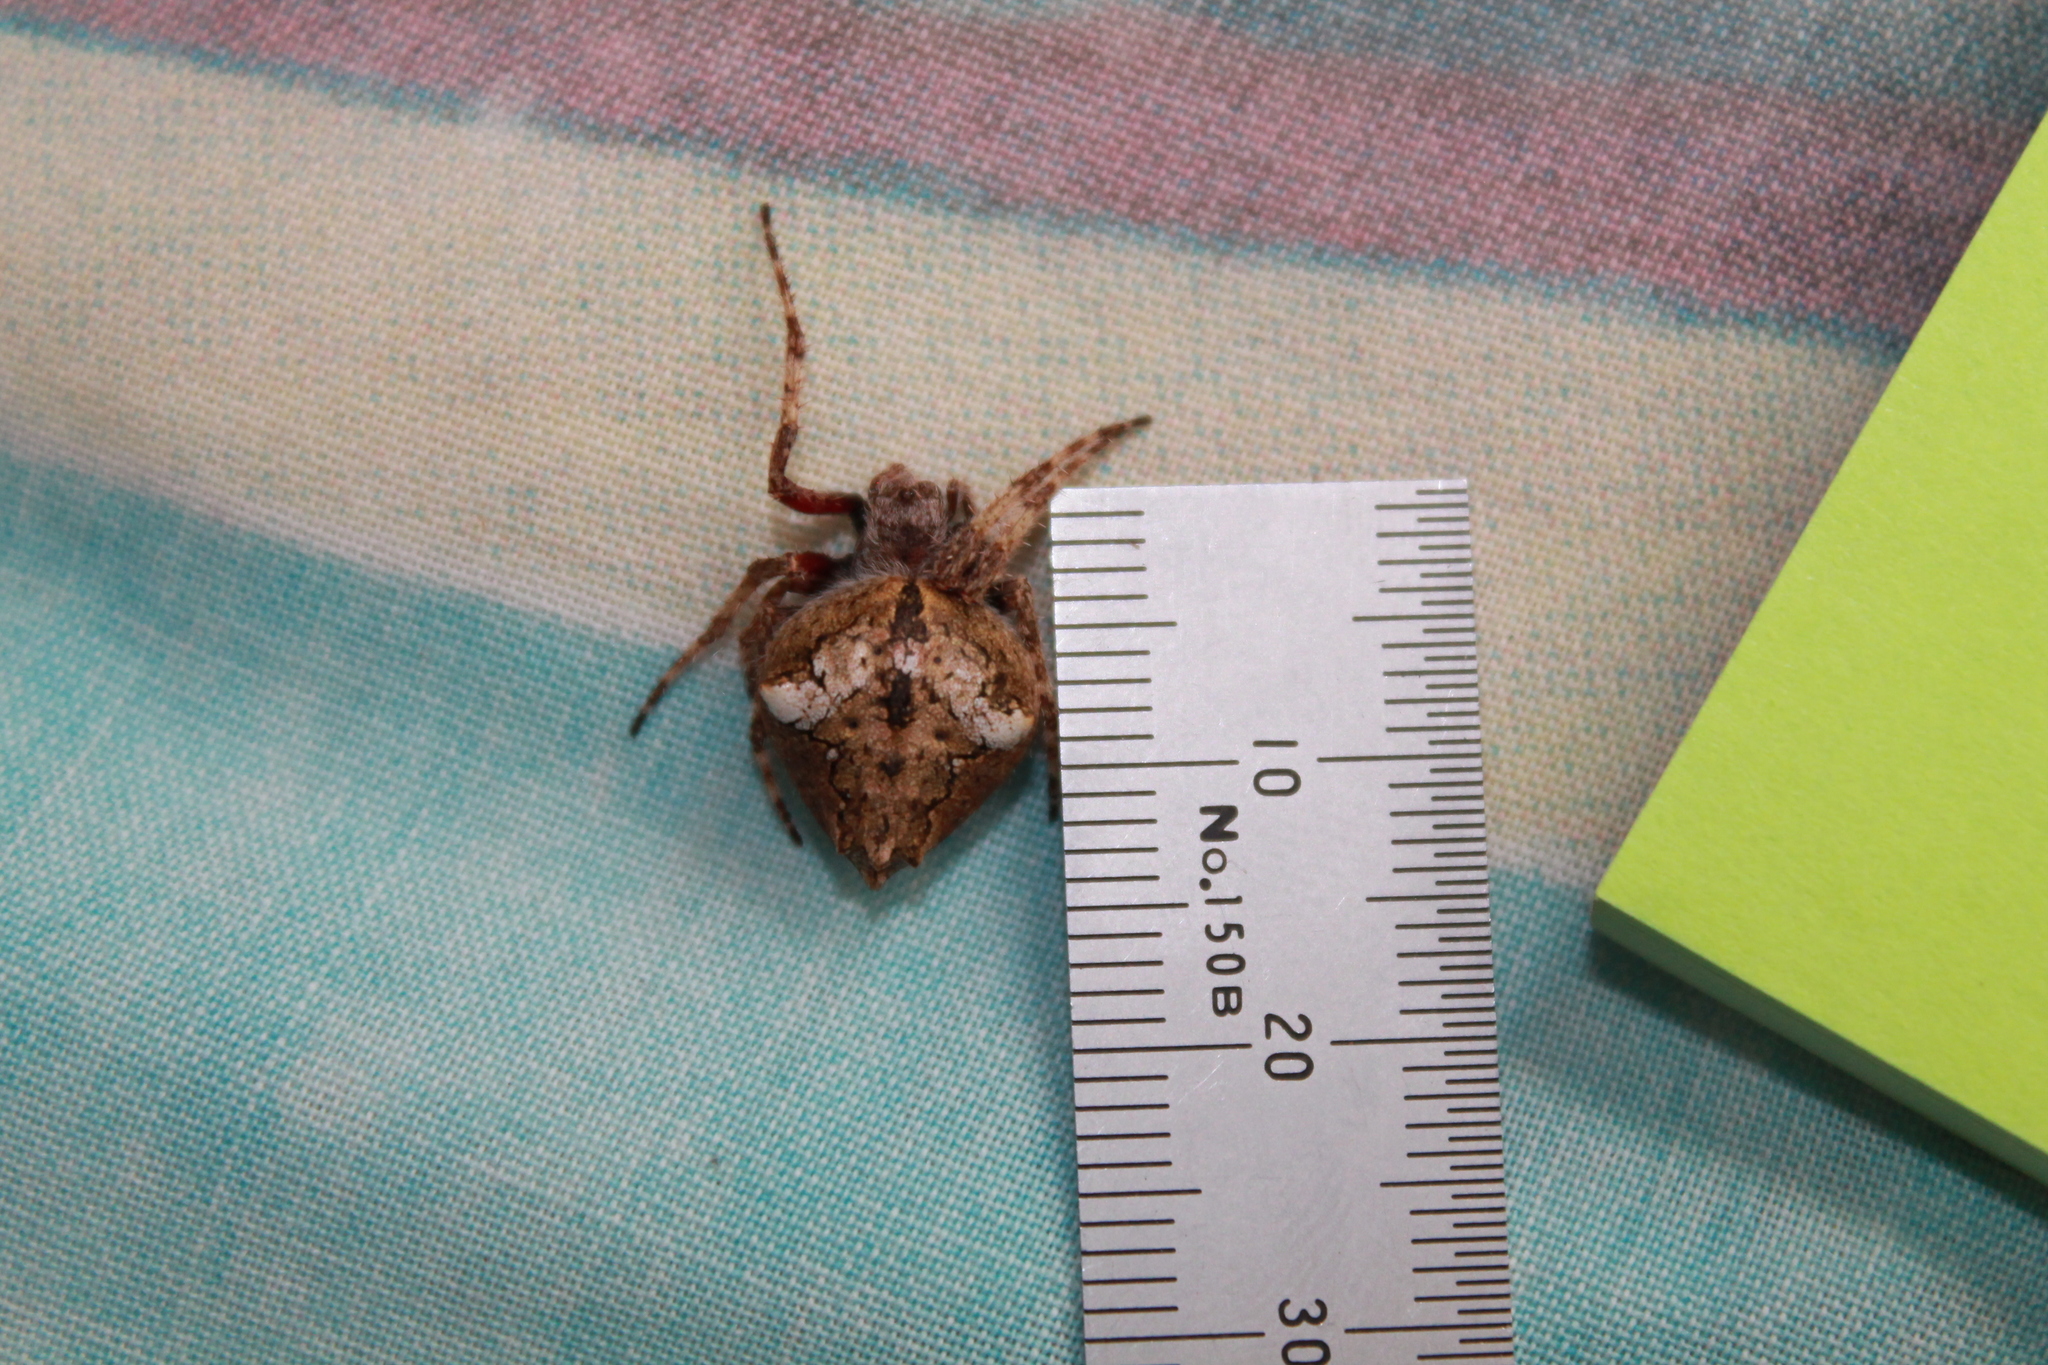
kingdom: Animalia
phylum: Arthropoda
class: Arachnida
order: Araneae
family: Araneidae
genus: Eriophora
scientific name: Eriophora pustulosa
